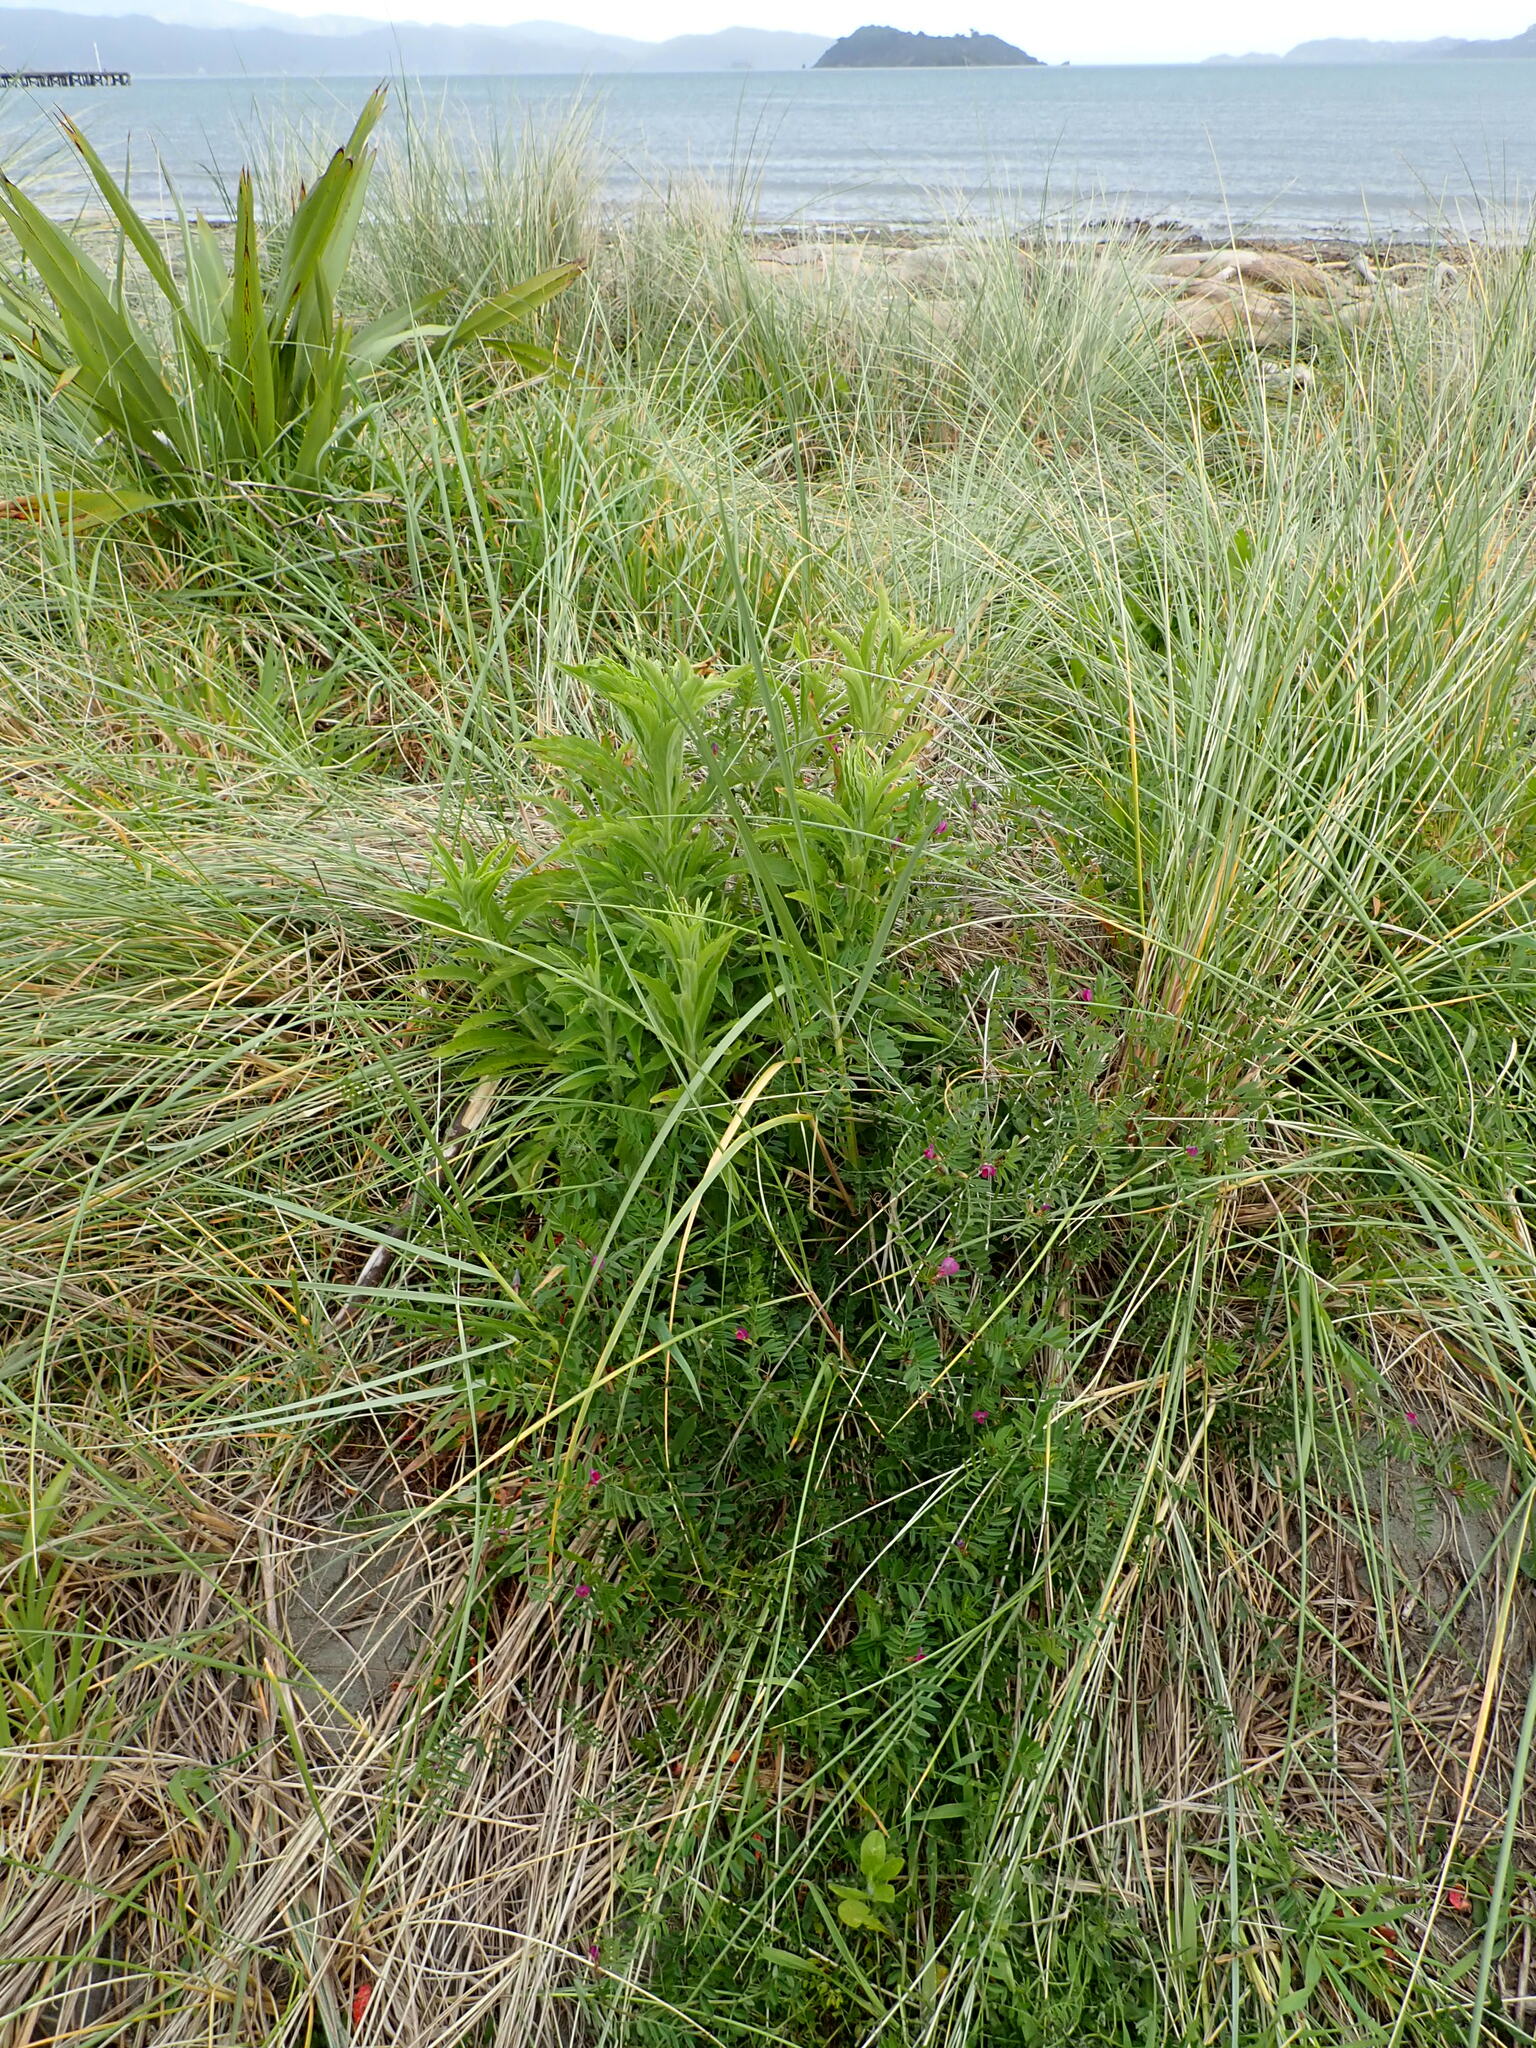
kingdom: Plantae
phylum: Tracheophyta
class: Magnoliopsida
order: Fabales
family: Fabaceae
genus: Vicia
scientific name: Vicia sativa
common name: Garden vetch
